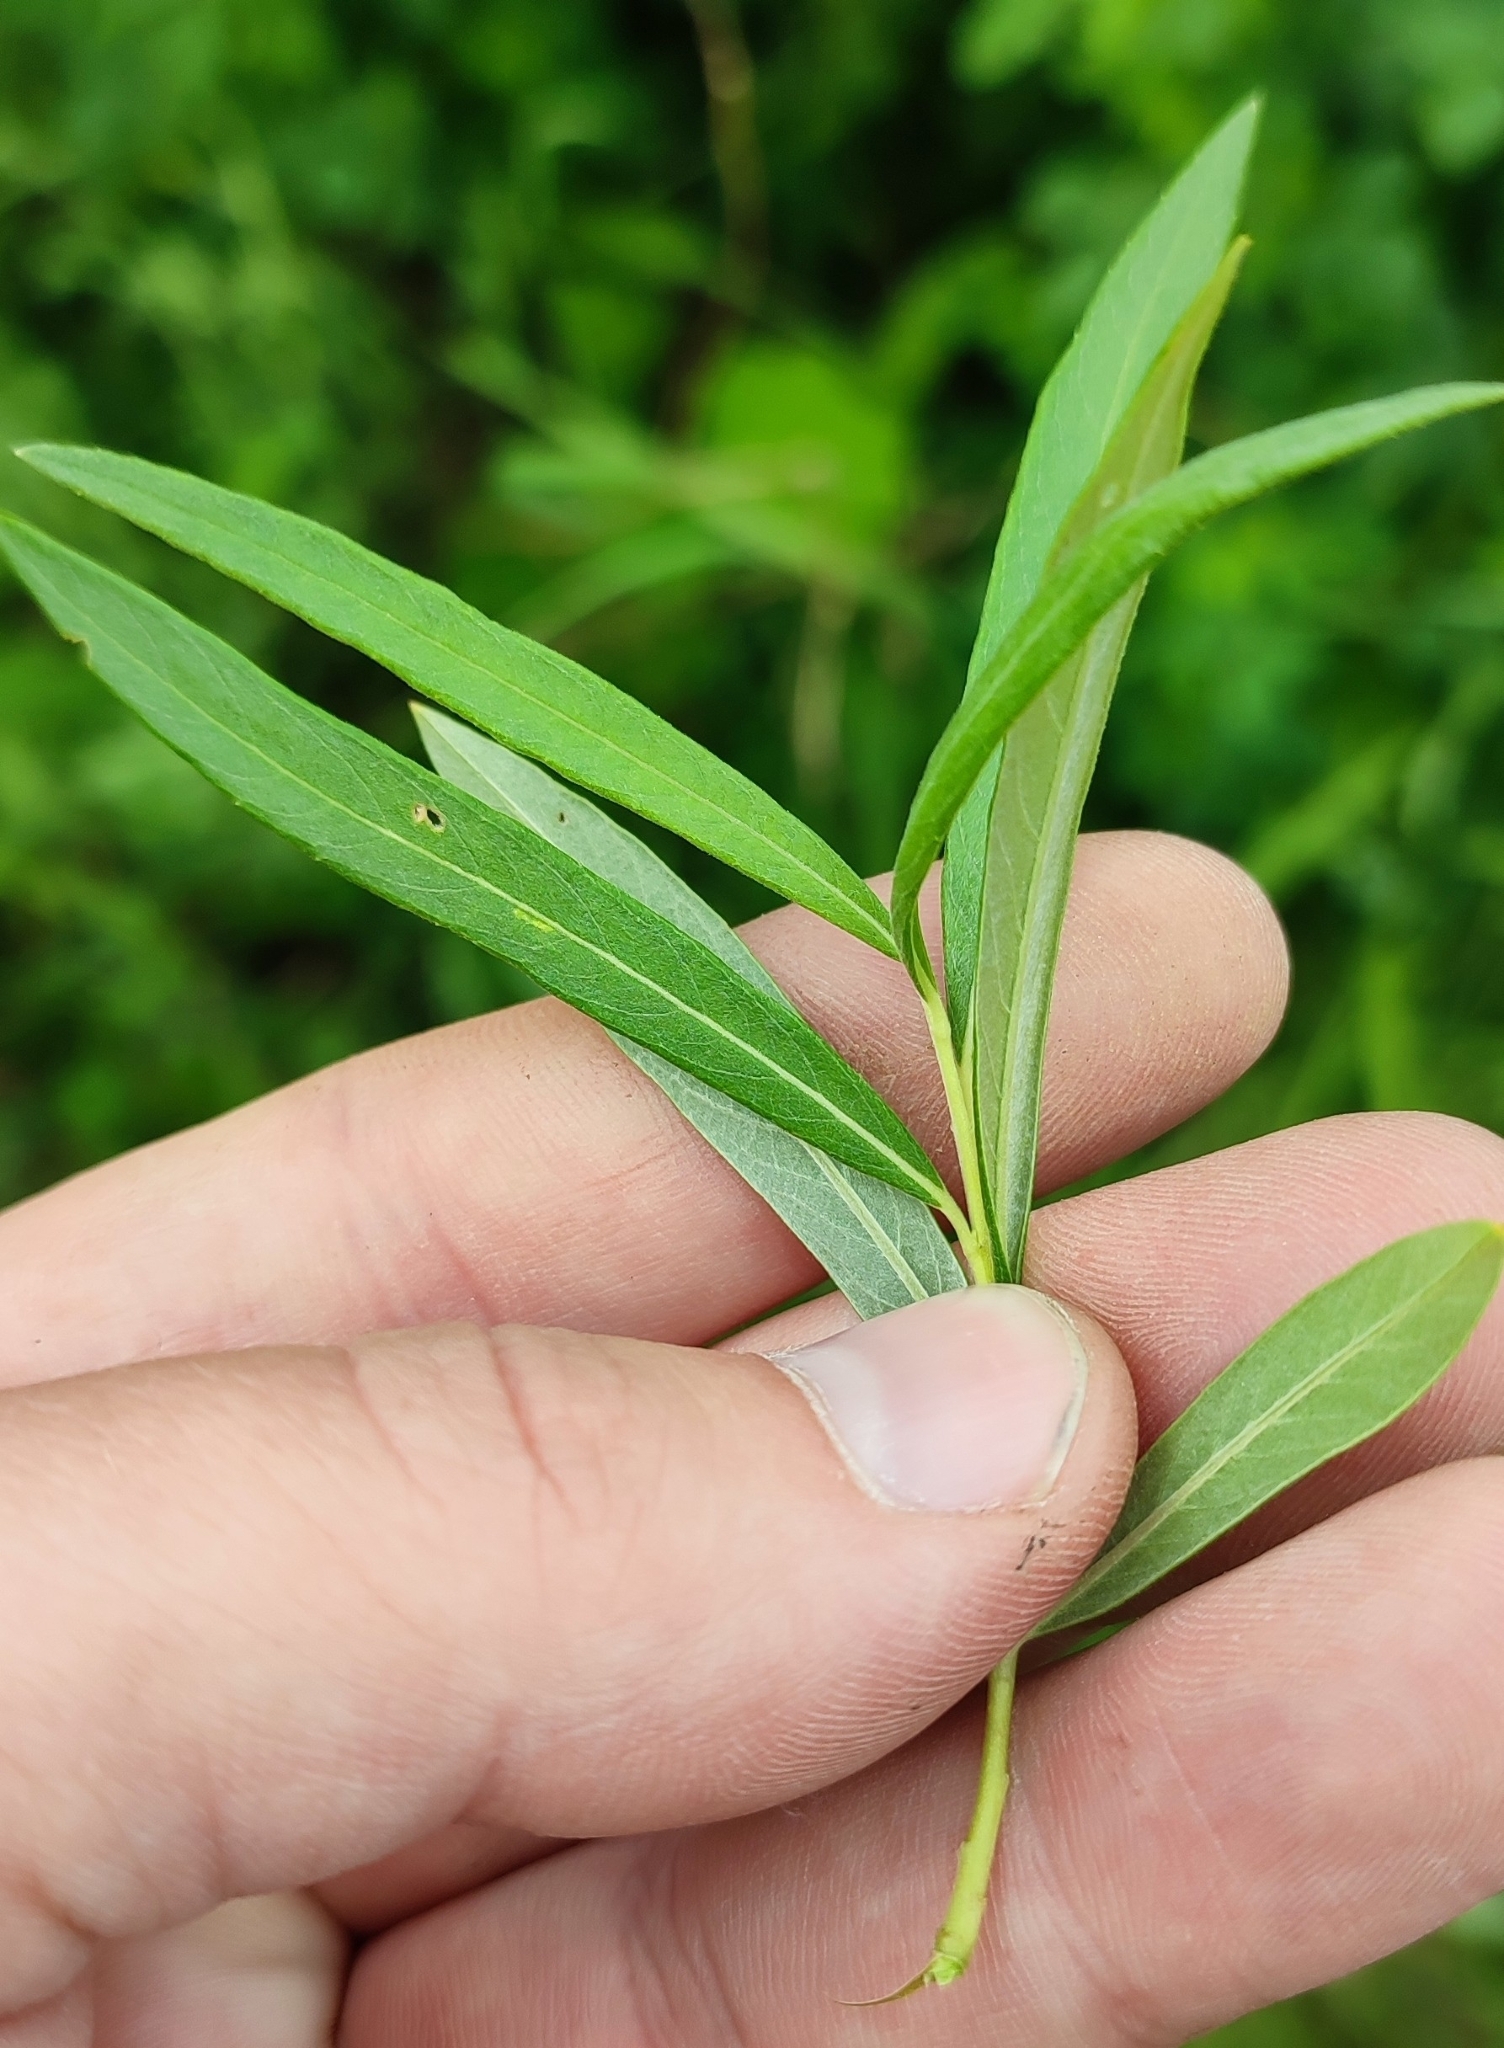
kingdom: Plantae
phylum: Tracheophyta
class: Magnoliopsida
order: Malpighiales
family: Salicaceae
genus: Salix
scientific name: Salix viminalis
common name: Osier
